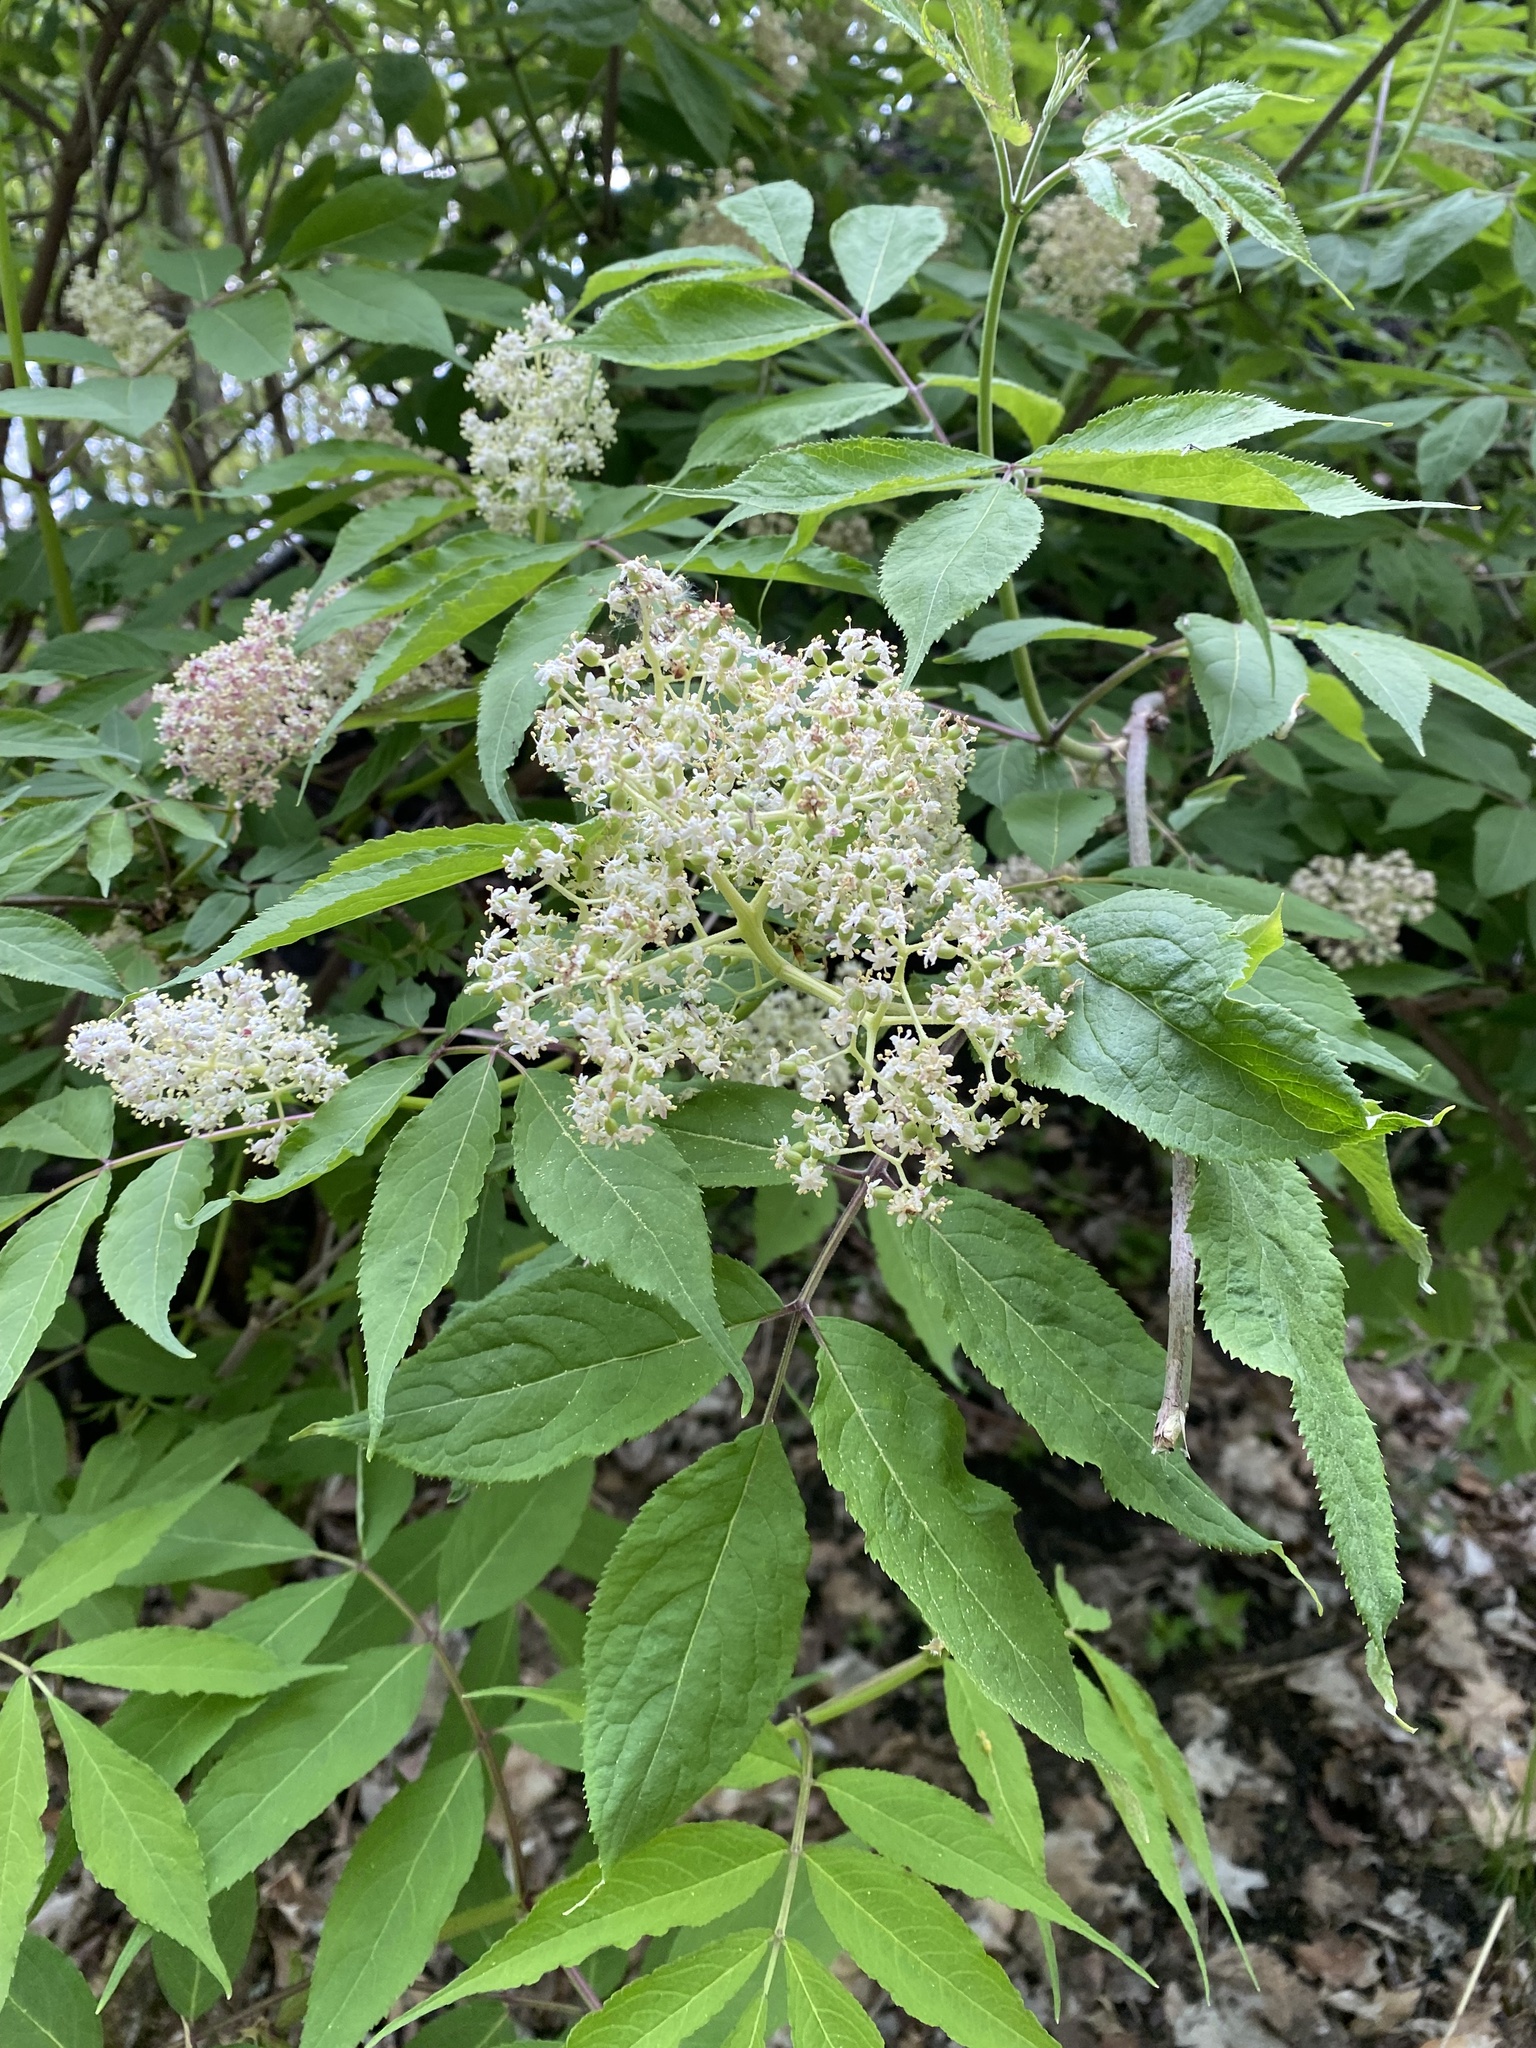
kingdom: Plantae
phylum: Tracheophyta
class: Magnoliopsida
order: Dipsacales
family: Viburnaceae
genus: Sambucus
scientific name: Sambucus racemosa
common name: Red-berried elder
